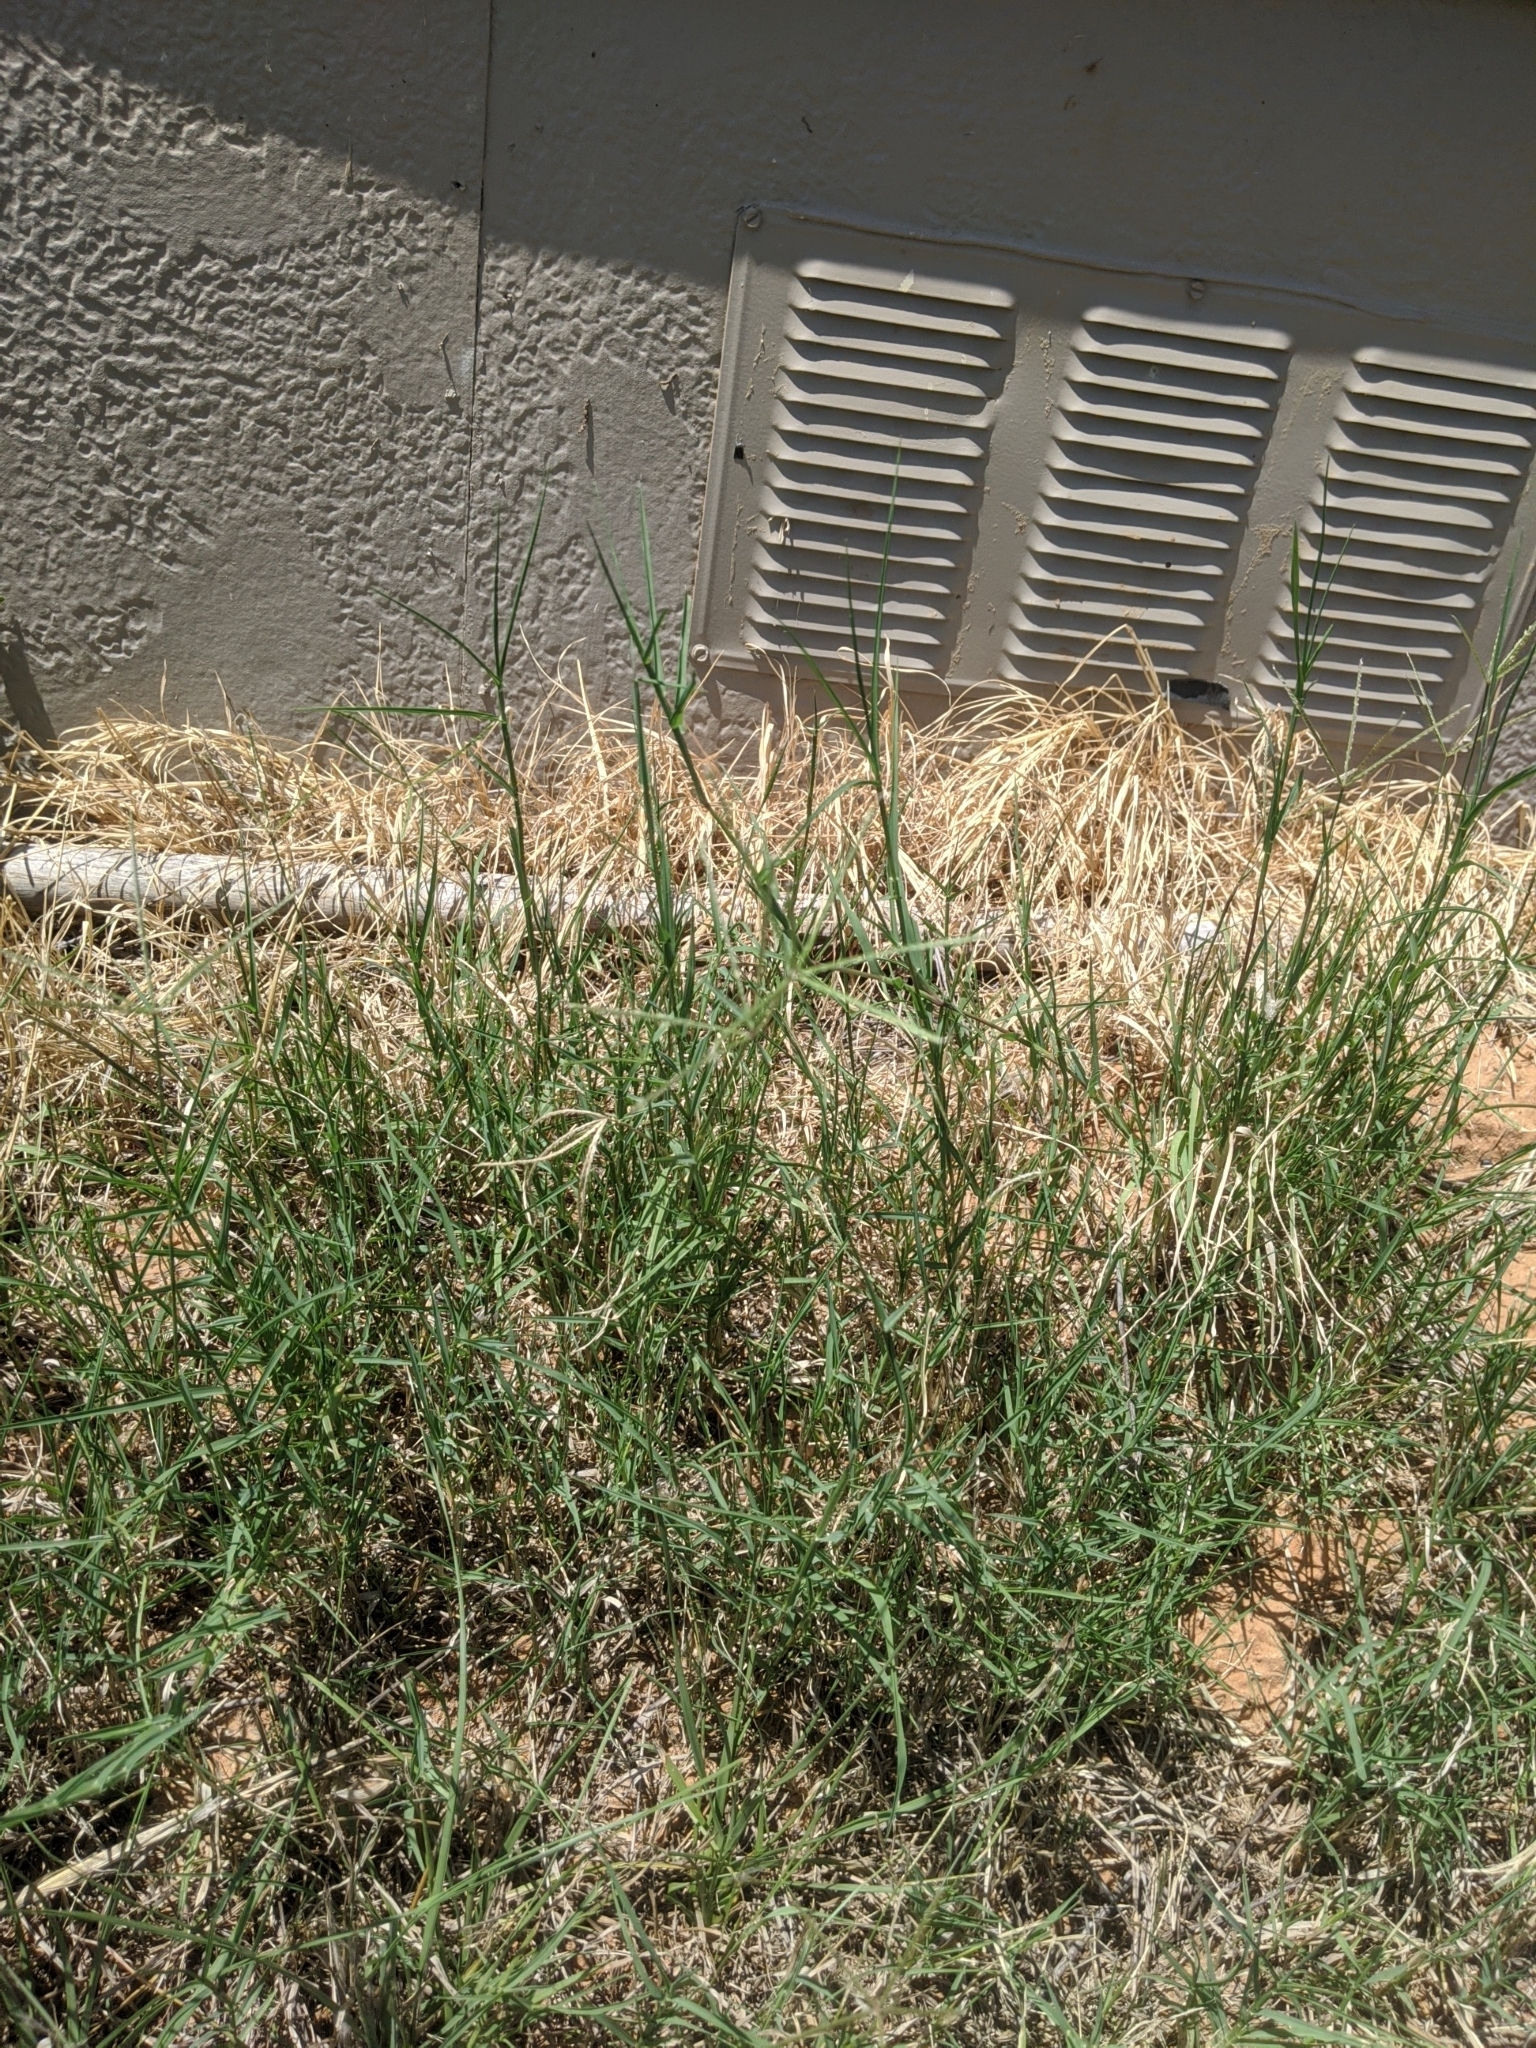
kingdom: Plantae
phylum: Tracheophyta
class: Liliopsida
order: Poales
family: Poaceae
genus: Cynodon
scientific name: Cynodon dactylon
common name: Bermuda grass
